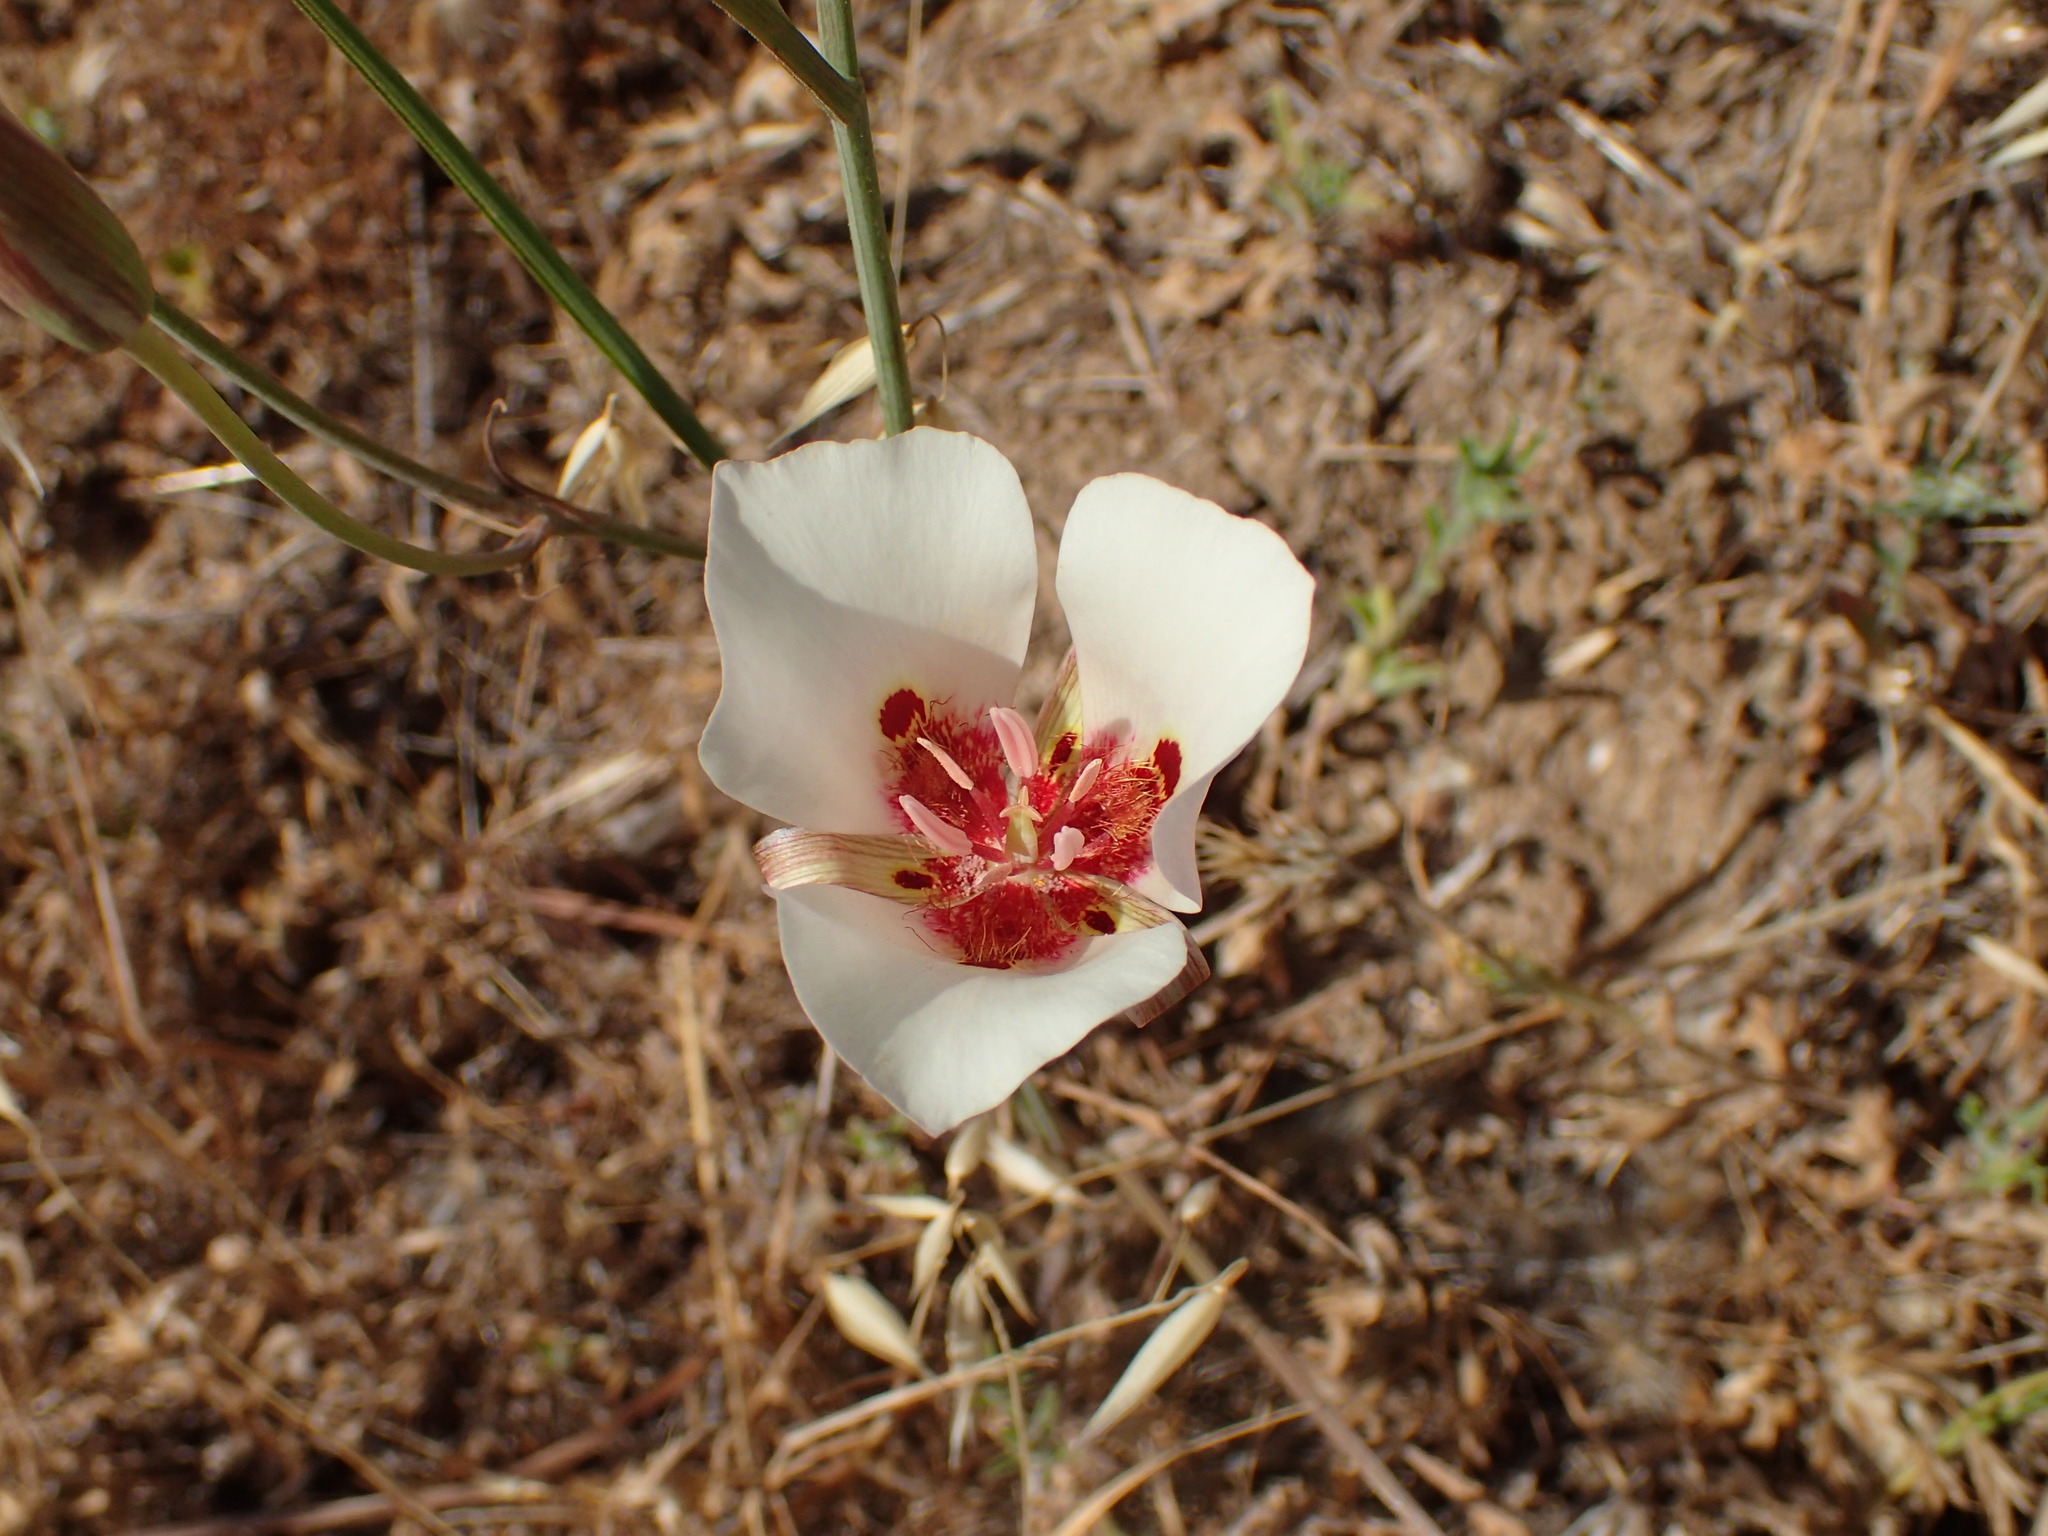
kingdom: Plantae
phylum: Tracheophyta
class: Liliopsida
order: Liliales
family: Liliaceae
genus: Calochortus
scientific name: Calochortus venustus
